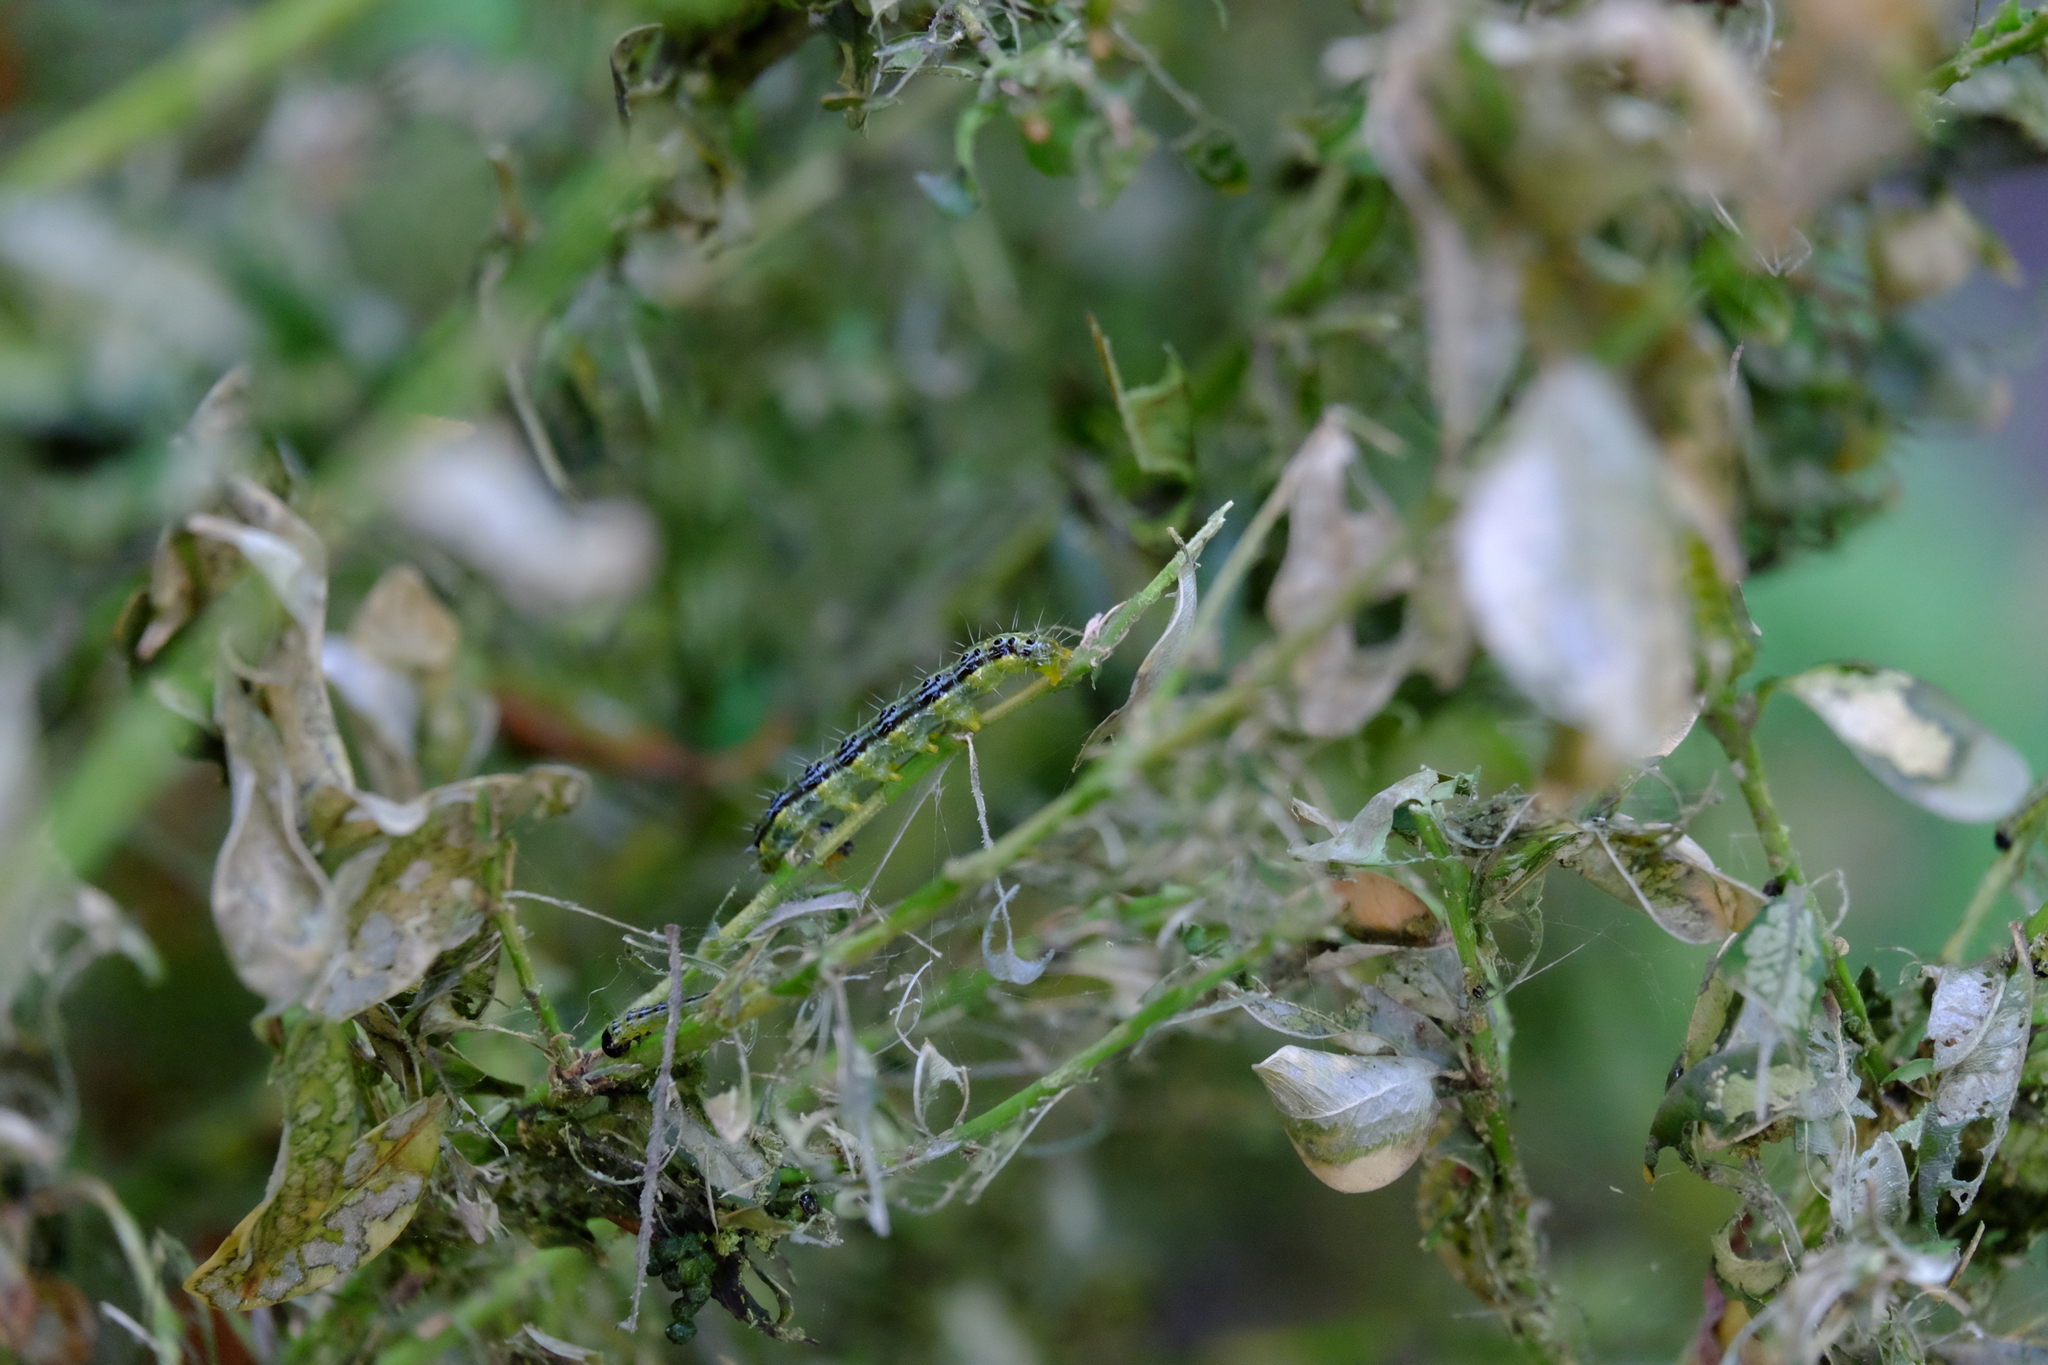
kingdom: Animalia
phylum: Arthropoda
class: Insecta
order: Lepidoptera
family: Crambidae
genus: Cydalima
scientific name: Cydalima perspectalis
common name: Box tree moth
